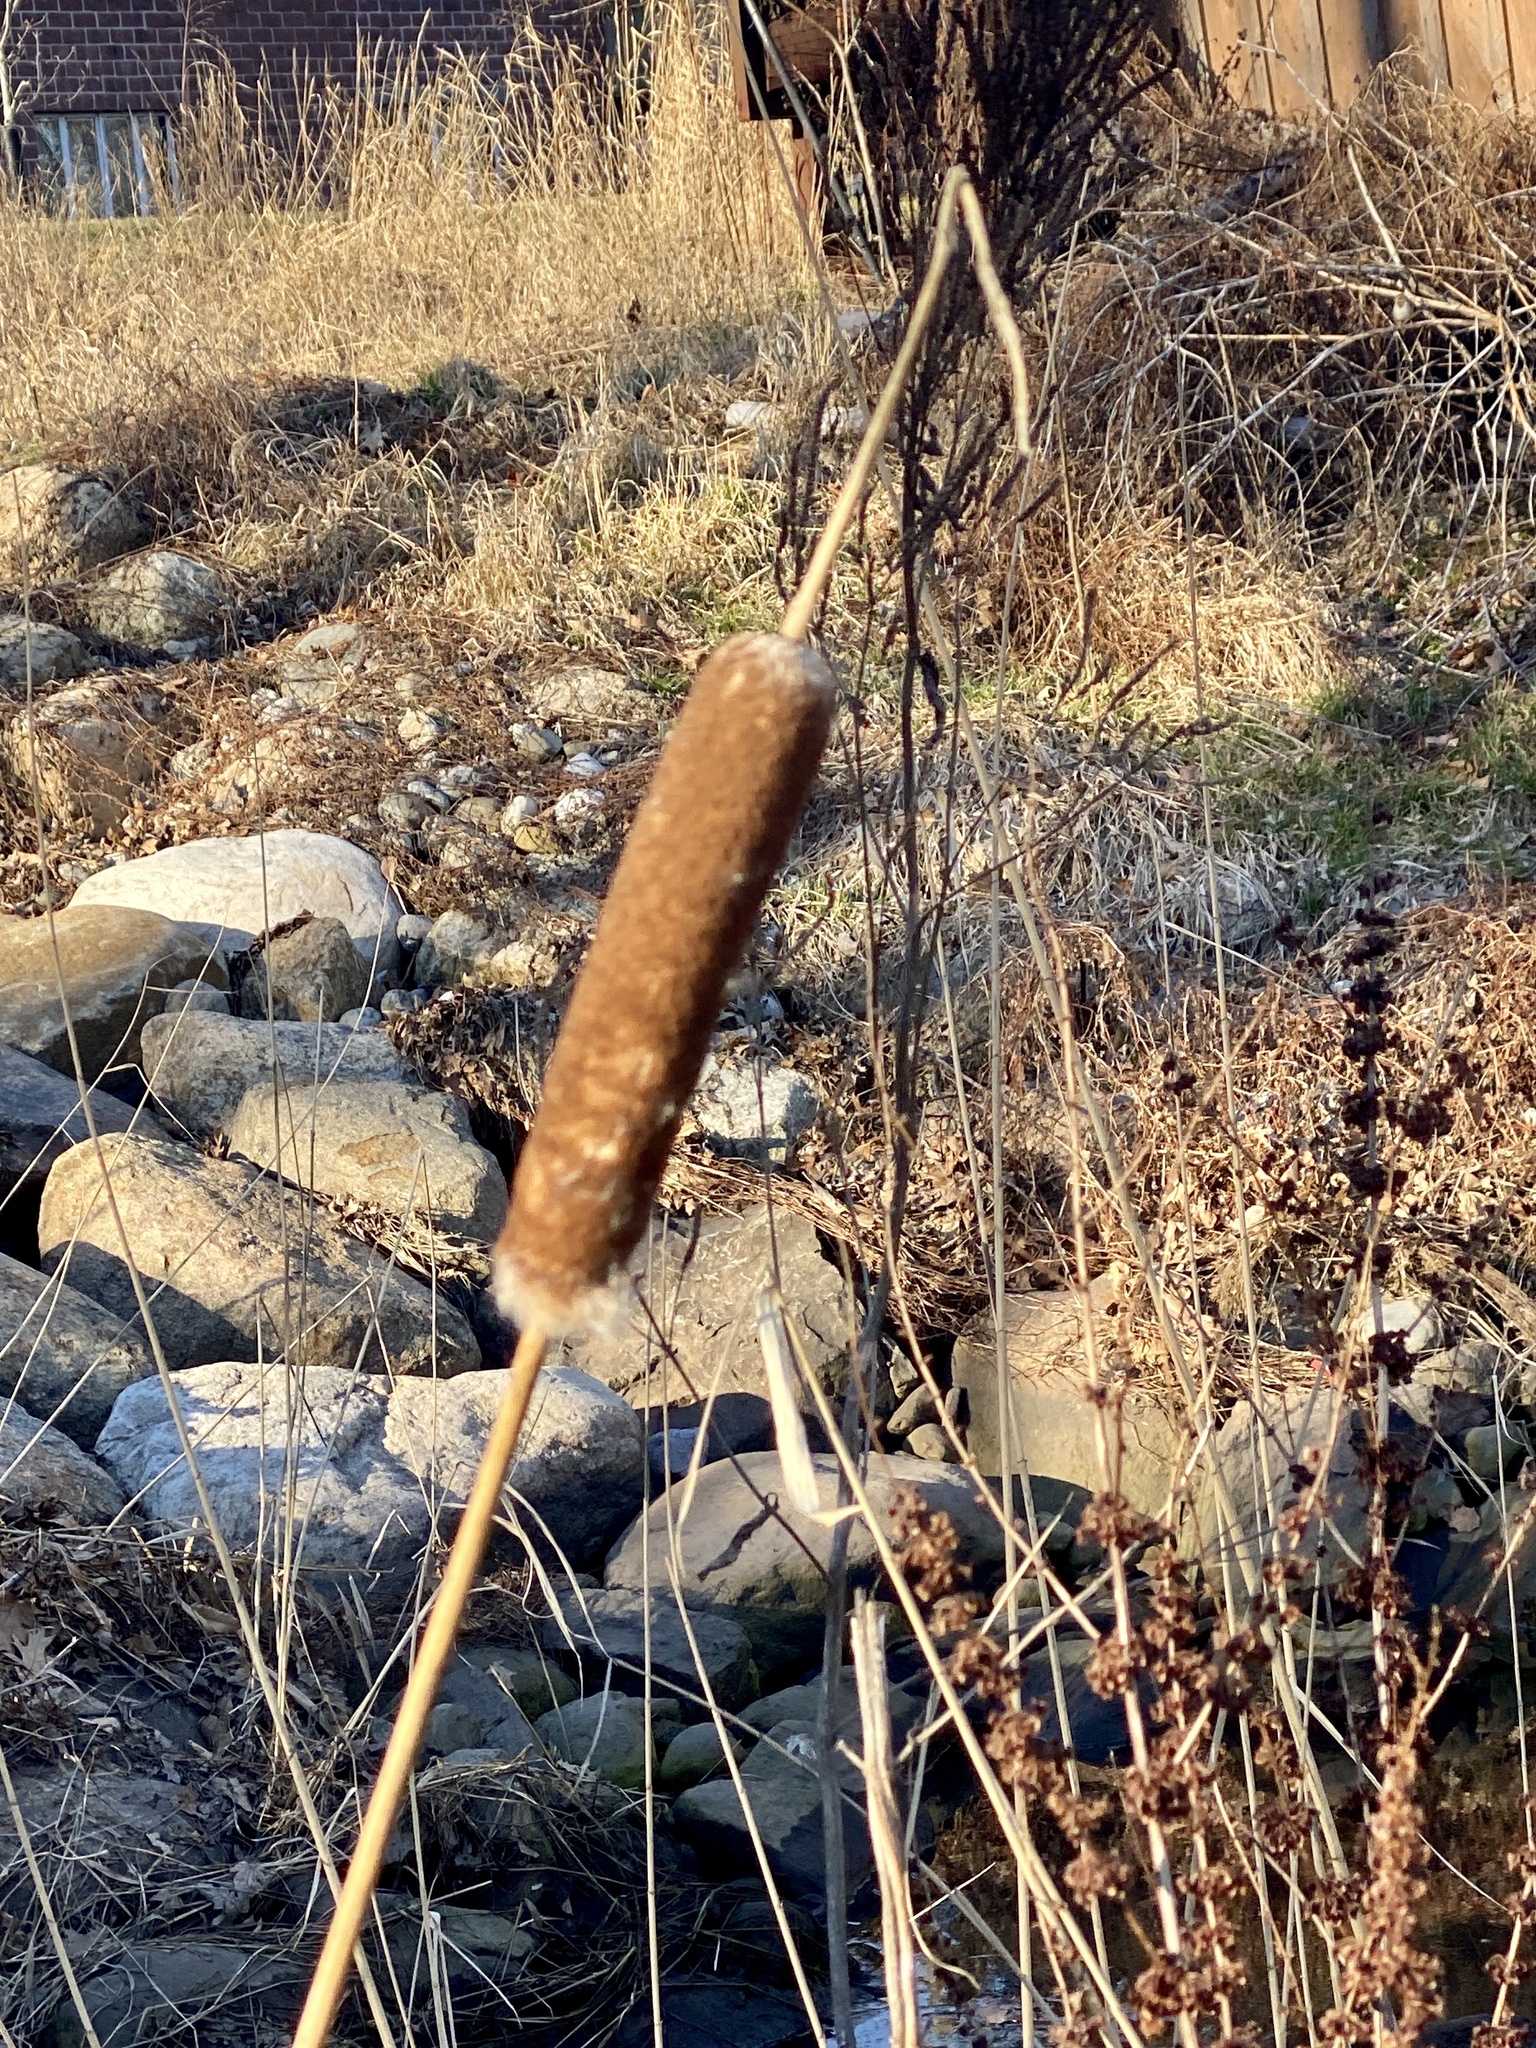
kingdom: Plantae
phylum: Tracheophyta
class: Liliopsida
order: Poales
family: Typhaceae
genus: Typha
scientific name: Typha
